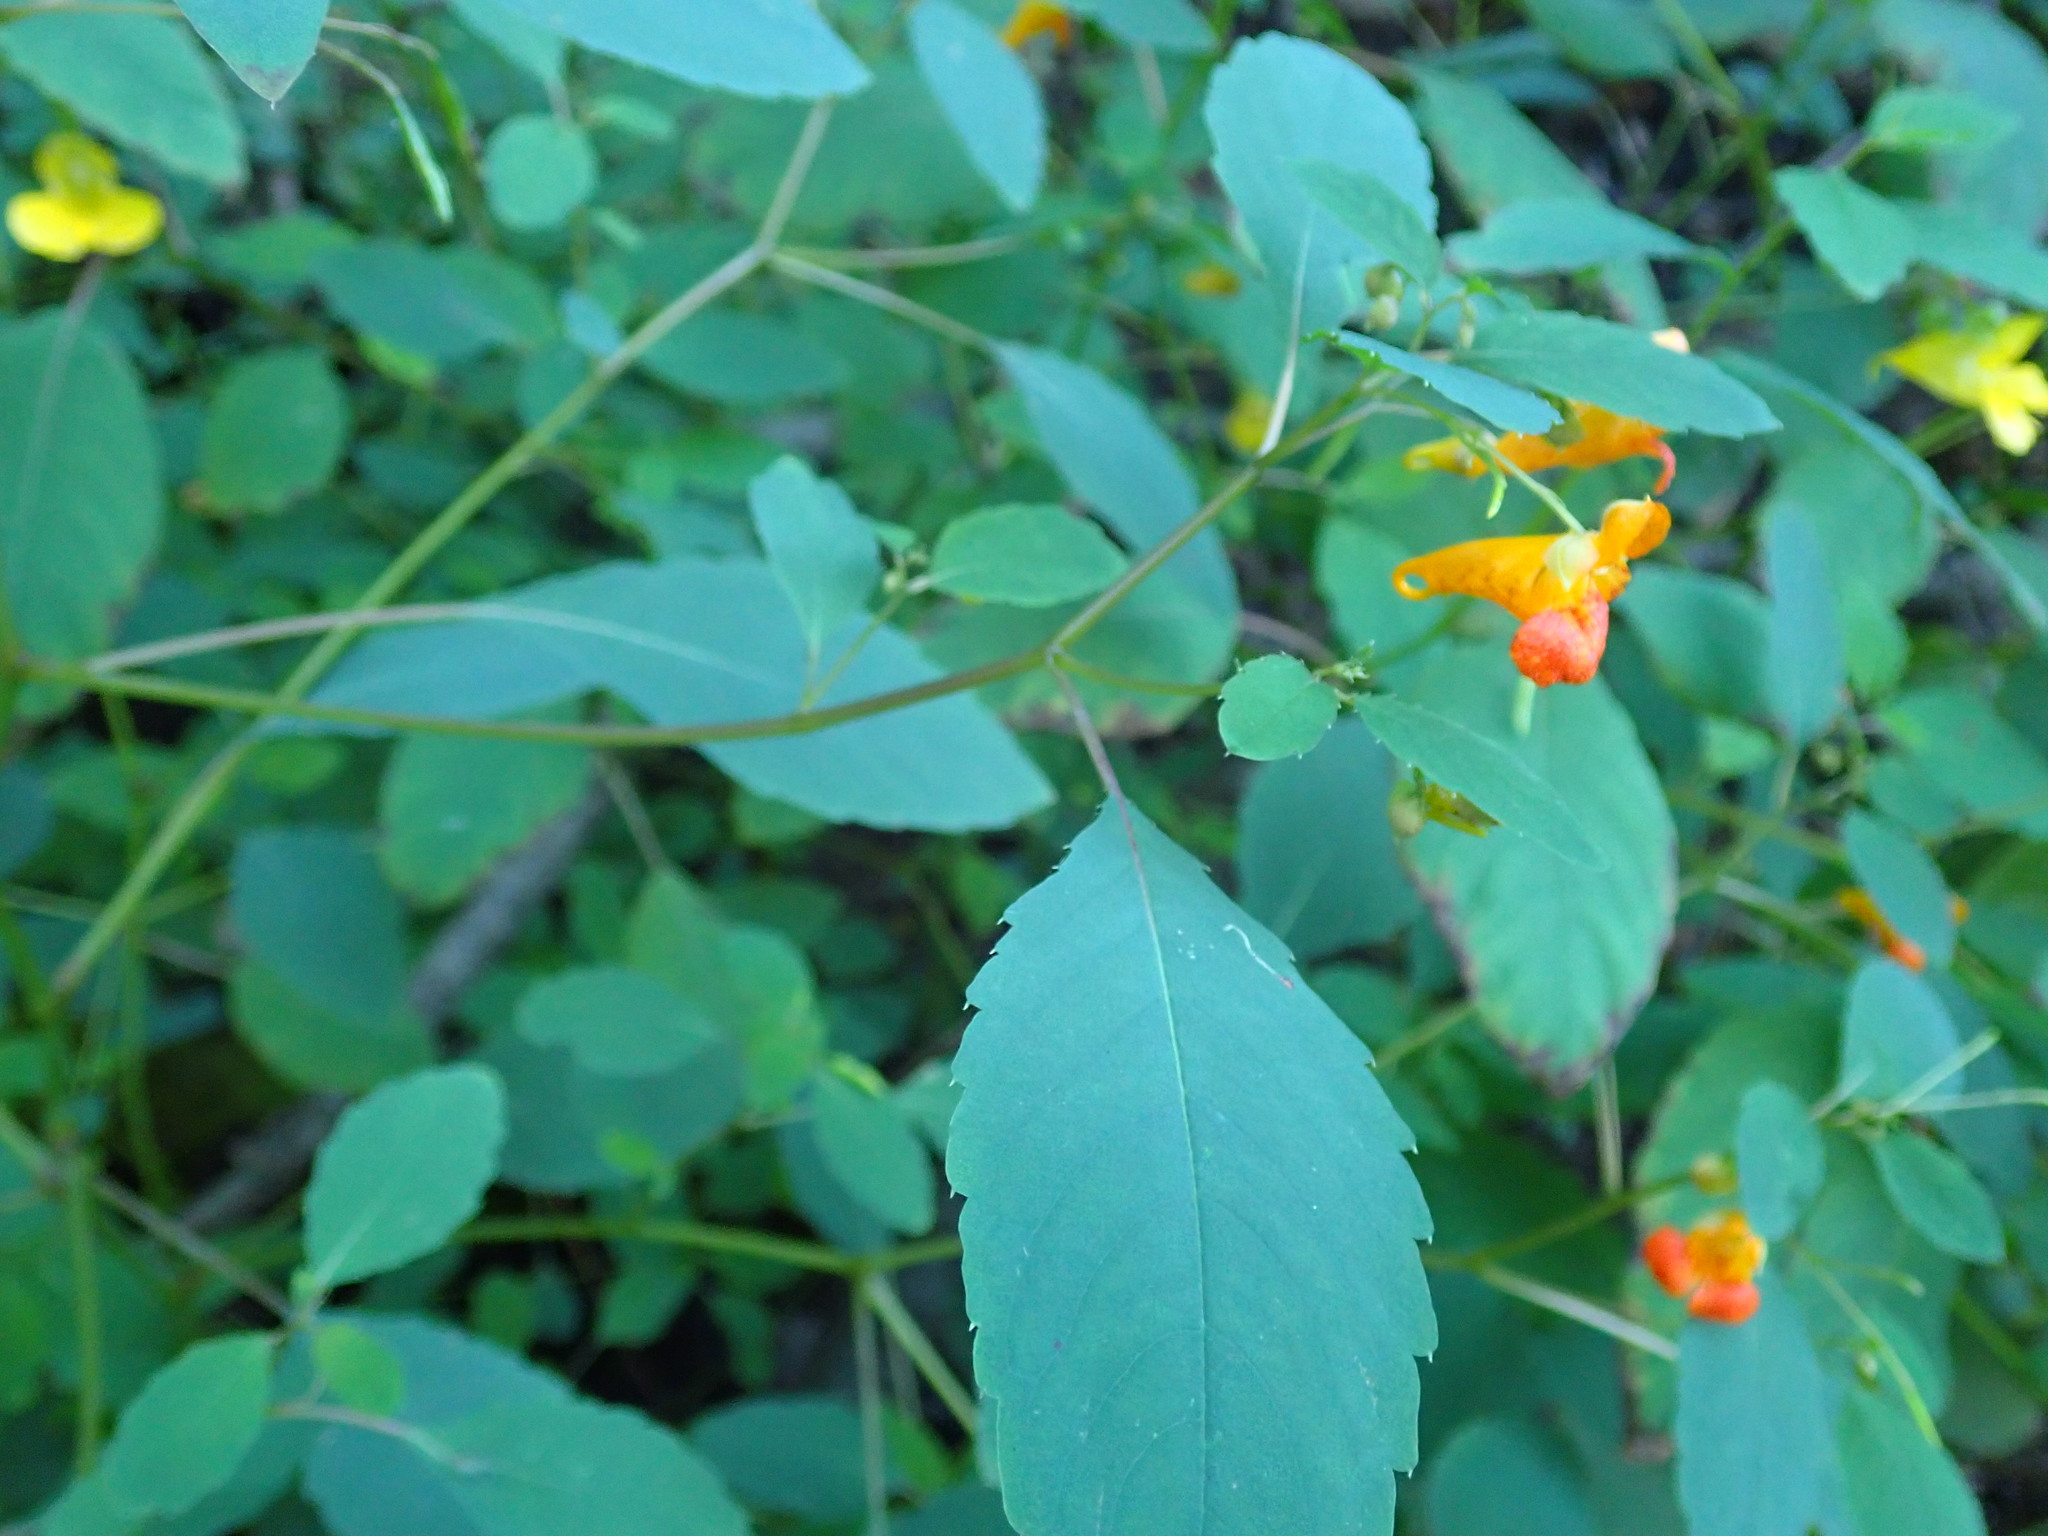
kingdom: Plantae
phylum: Tracheophyta
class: Magnoliopsida
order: Ericales
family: Balsaminaceae
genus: Impatiens
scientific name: Impatiens capensis
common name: Orange balsam
